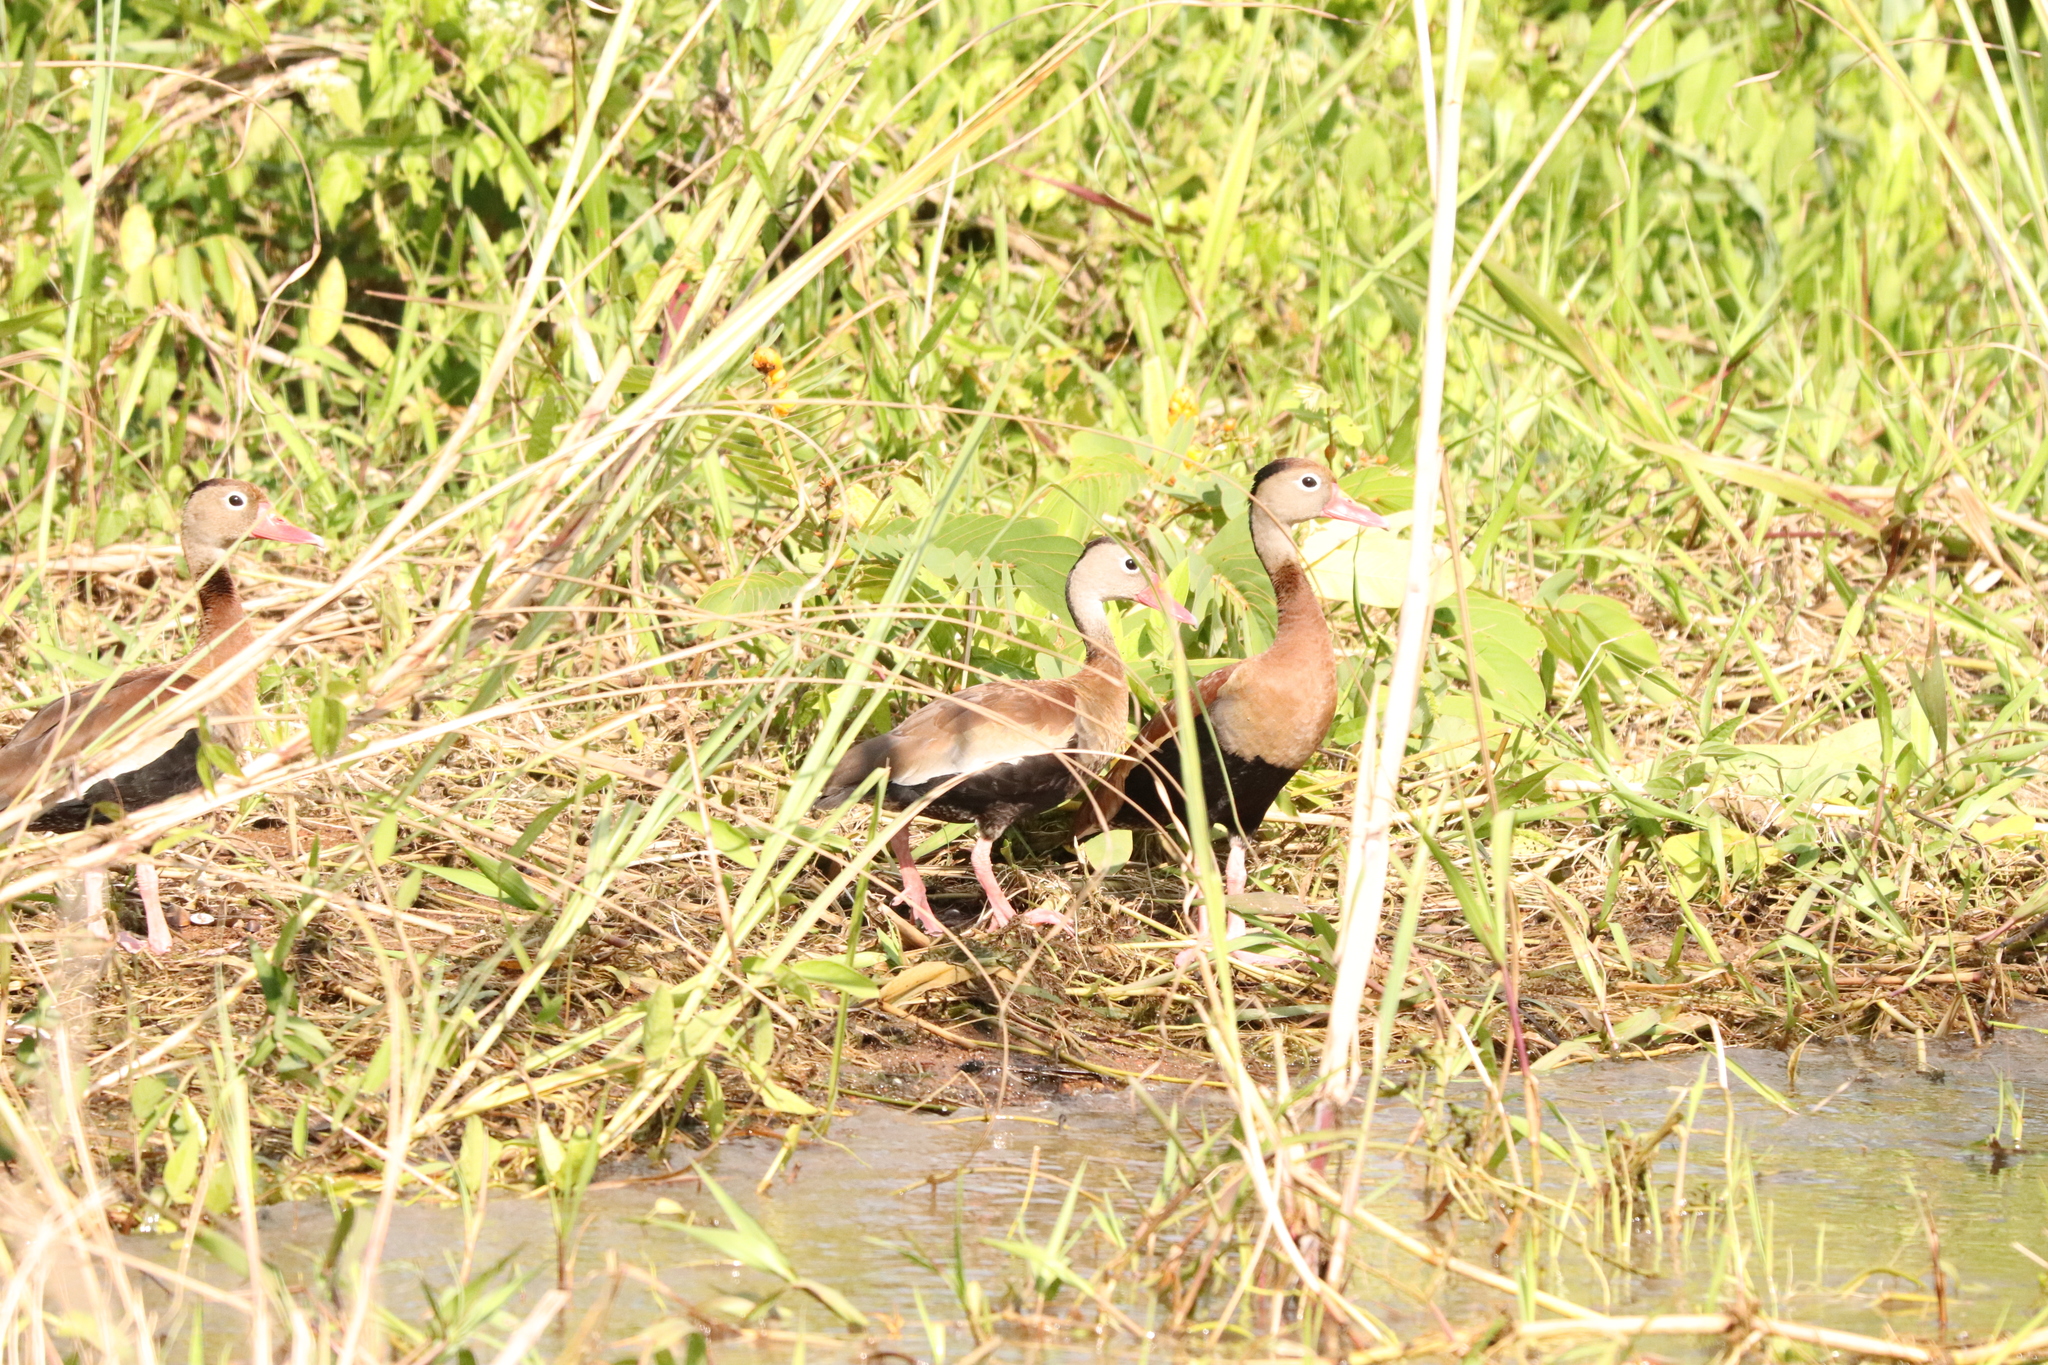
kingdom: Animalia
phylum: Chordata
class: Aves
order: Anseriformes
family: Anatidae
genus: Dendrocygna
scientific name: Dendrocygna autumnalis
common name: Black-bellied whistling duck
